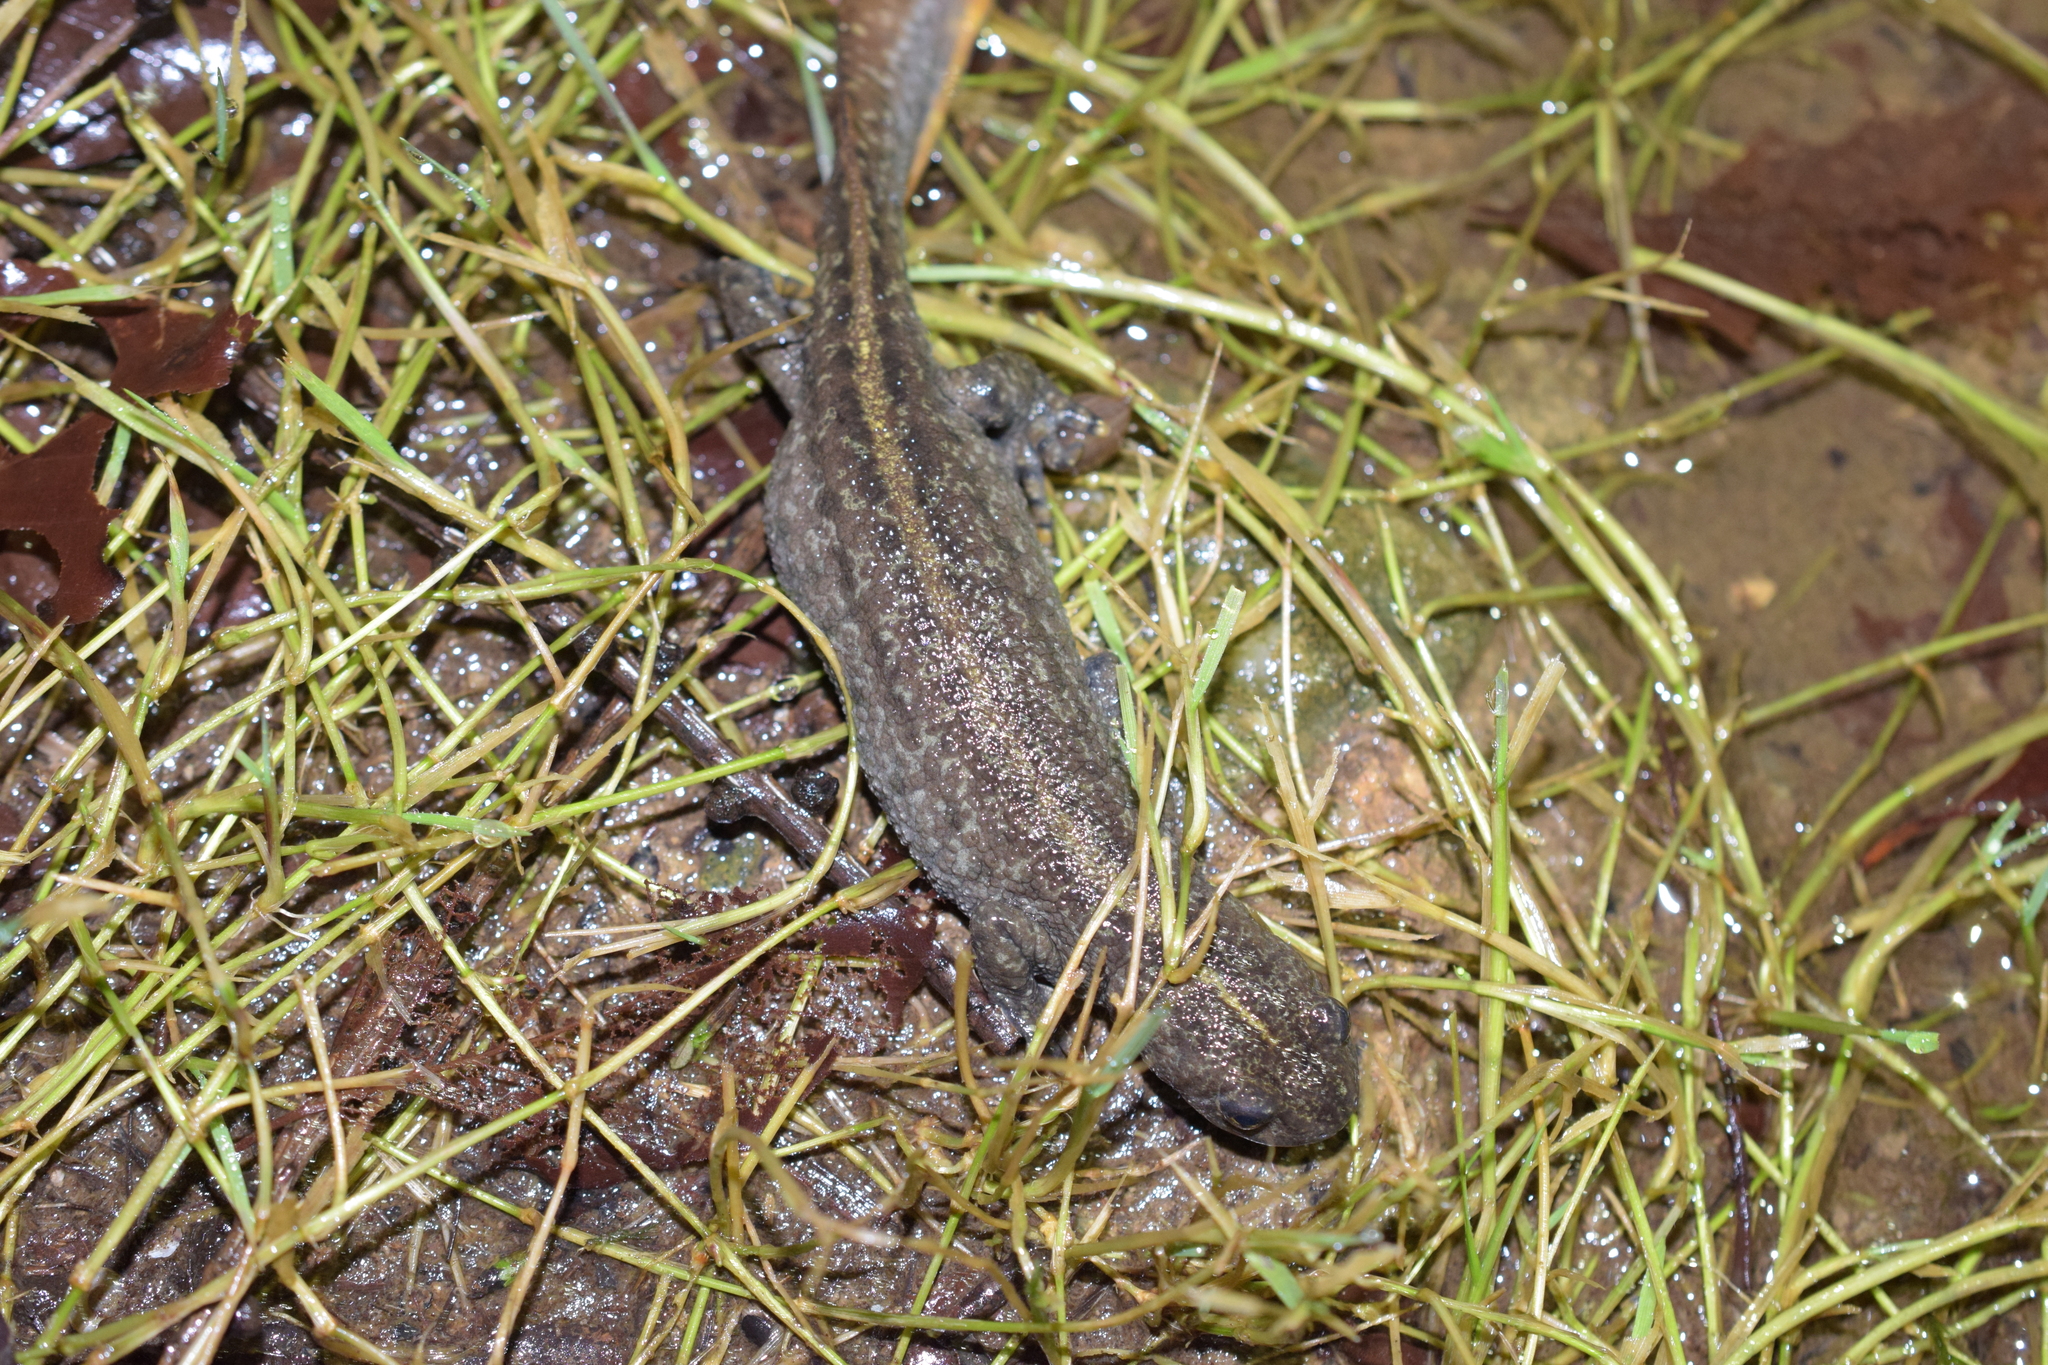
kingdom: Animalia
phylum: Chordata
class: Amphibia
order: Caudata
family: Salamandridae
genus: Triturus
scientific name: Triturus carnifex
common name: Italian crested newt
